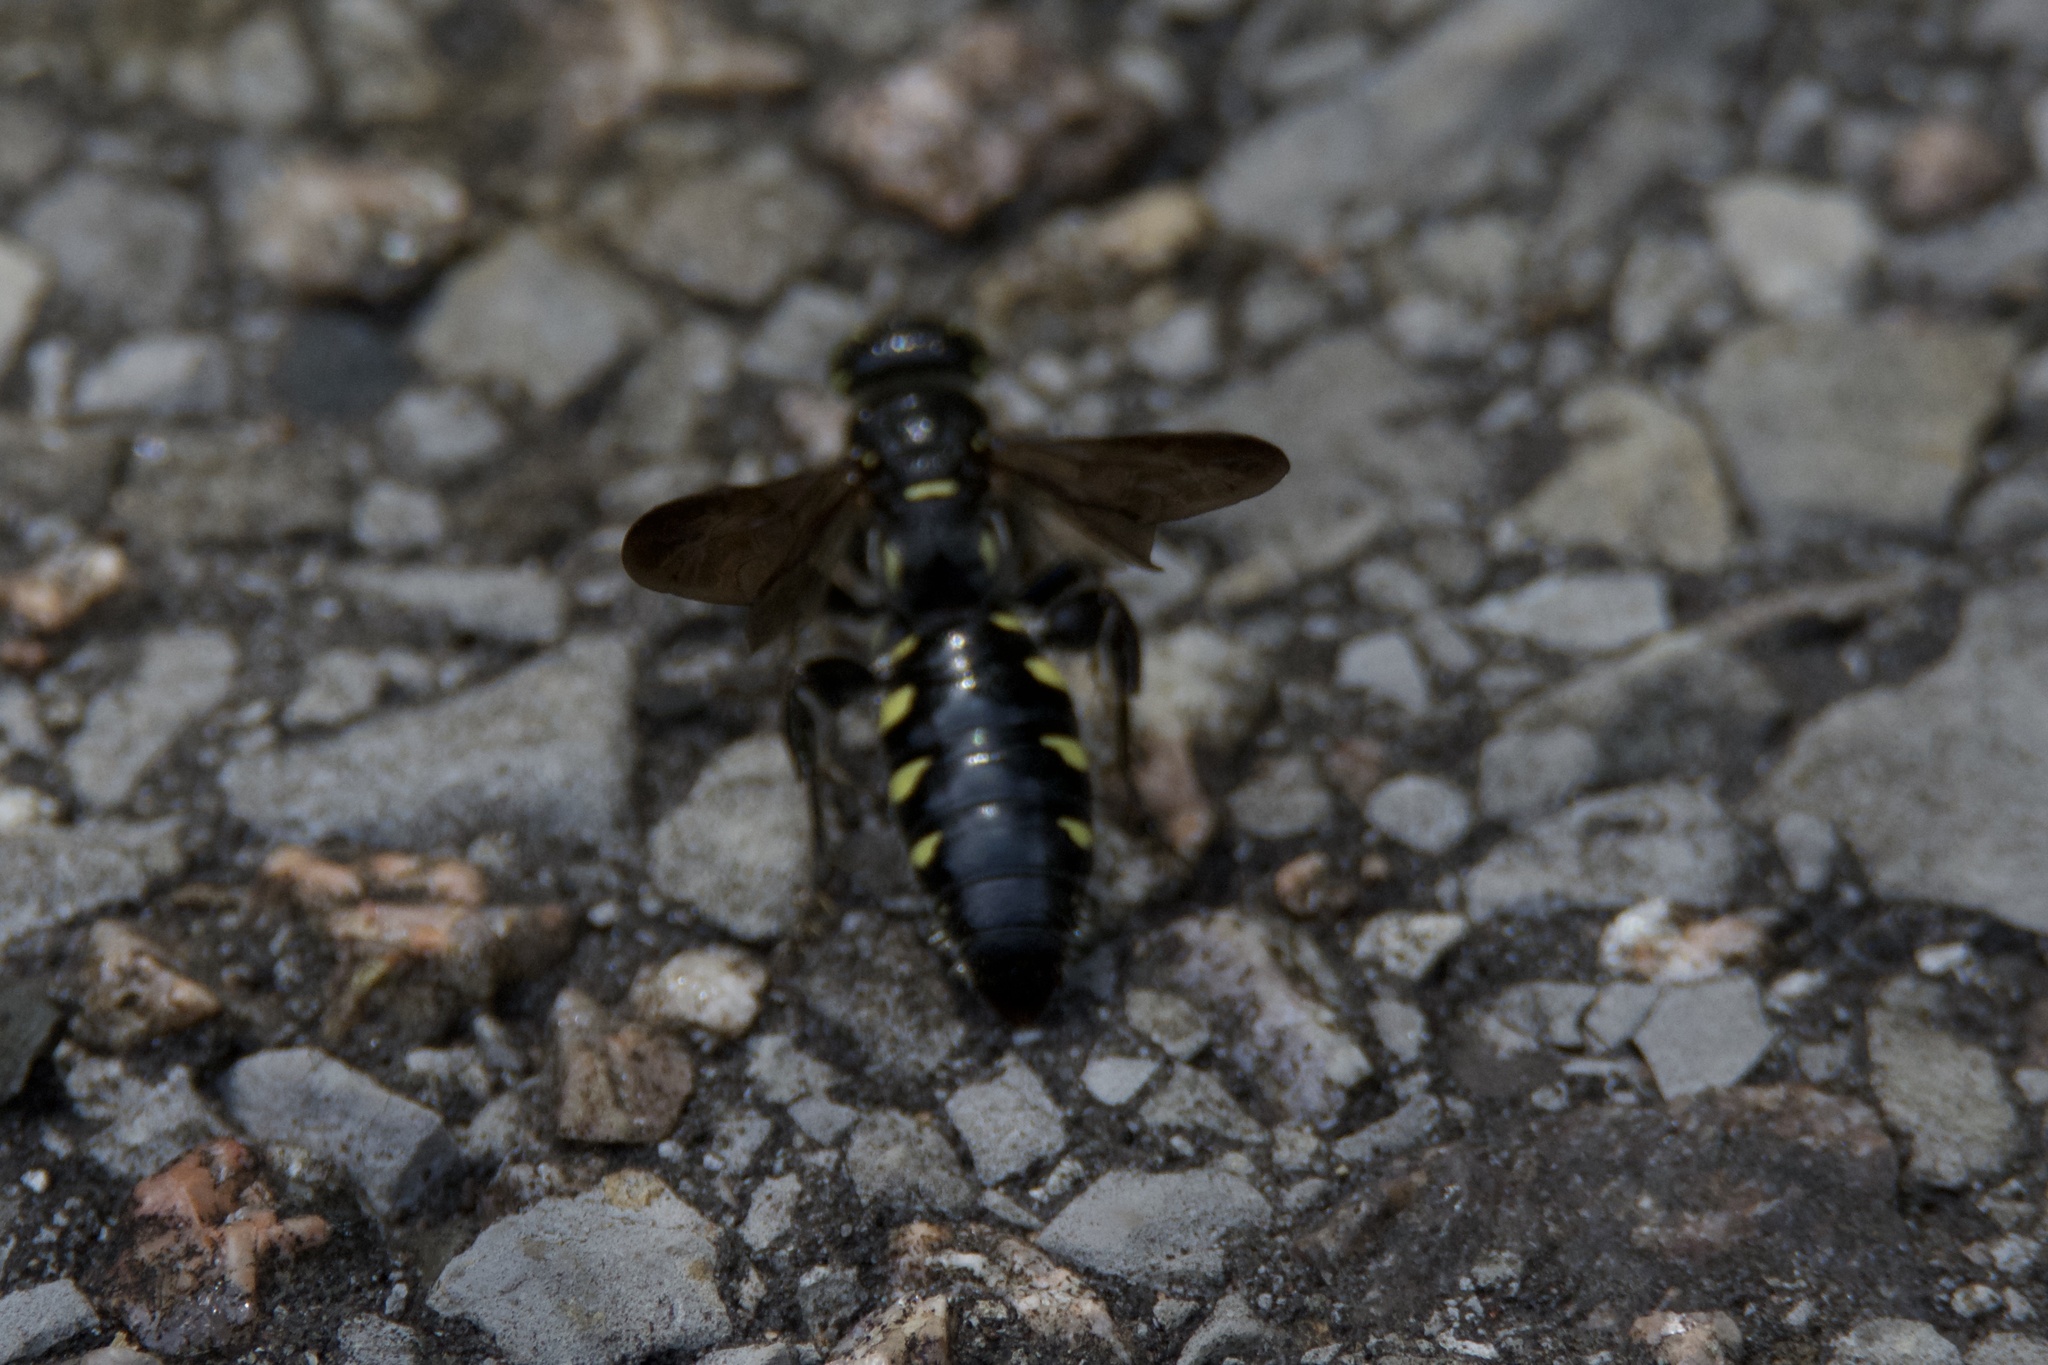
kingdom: Animalia
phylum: Arthropoda
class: Insecta
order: Hymenoptera
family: Tiphiidae
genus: Myzinum
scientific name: Myzinum obscurum
